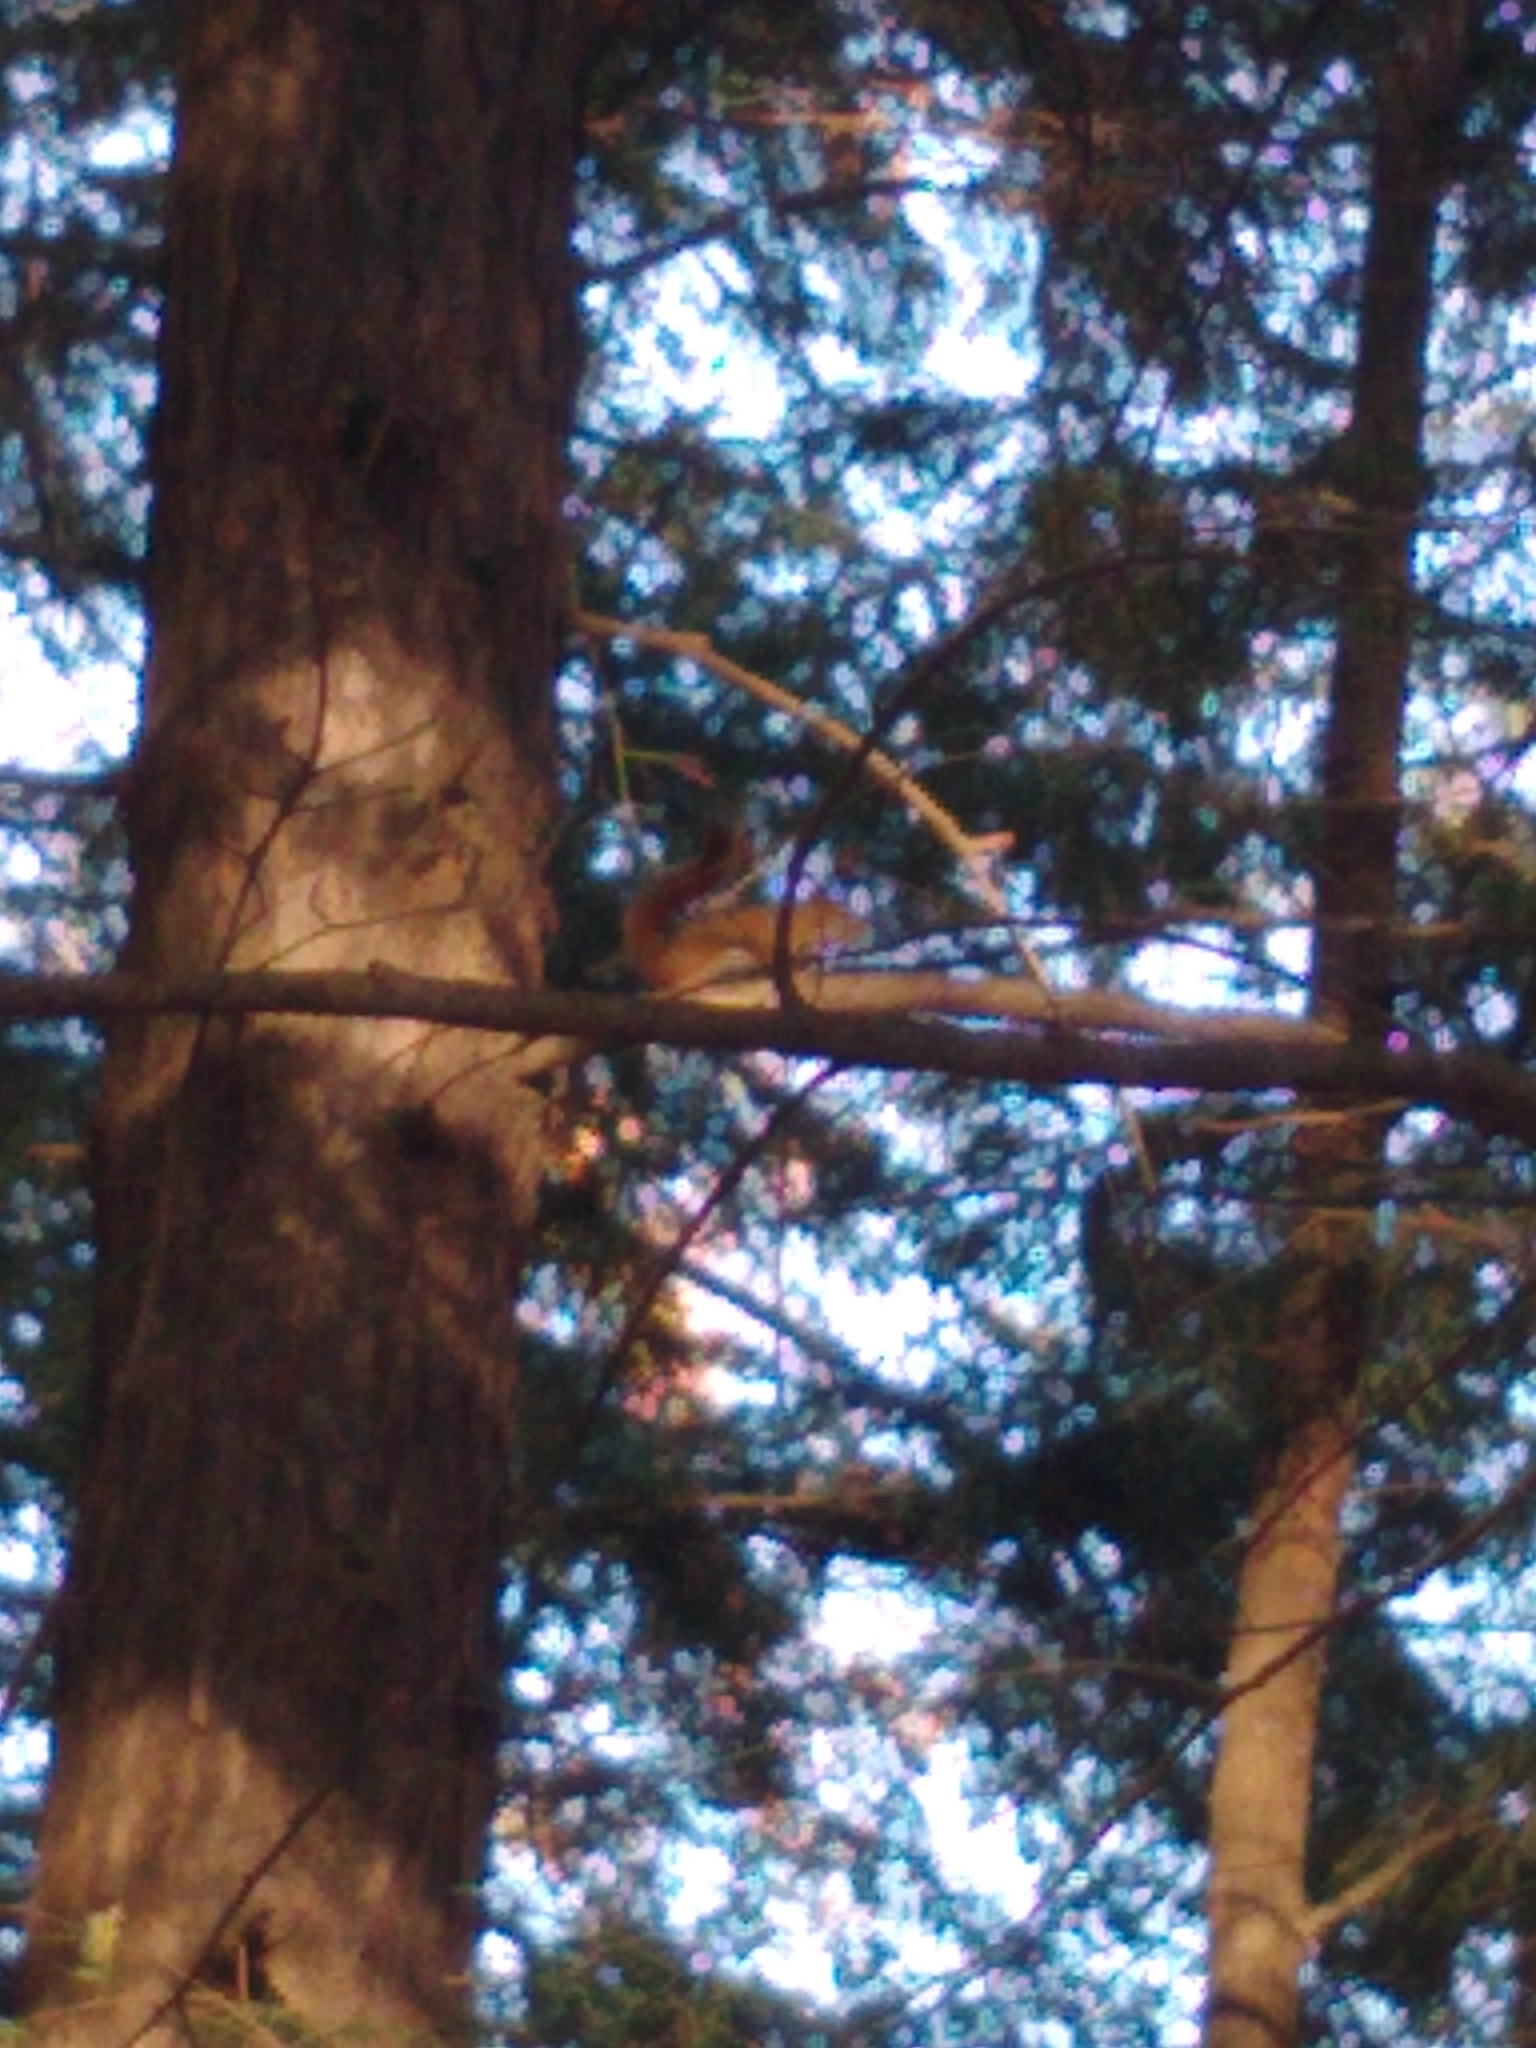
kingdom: Animalia
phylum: Chordata
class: Mammalia
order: Rodentia
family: Sciuridae
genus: Tamiasciurus
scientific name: Tamiasciurus hudsonicus
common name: Red squirrel
